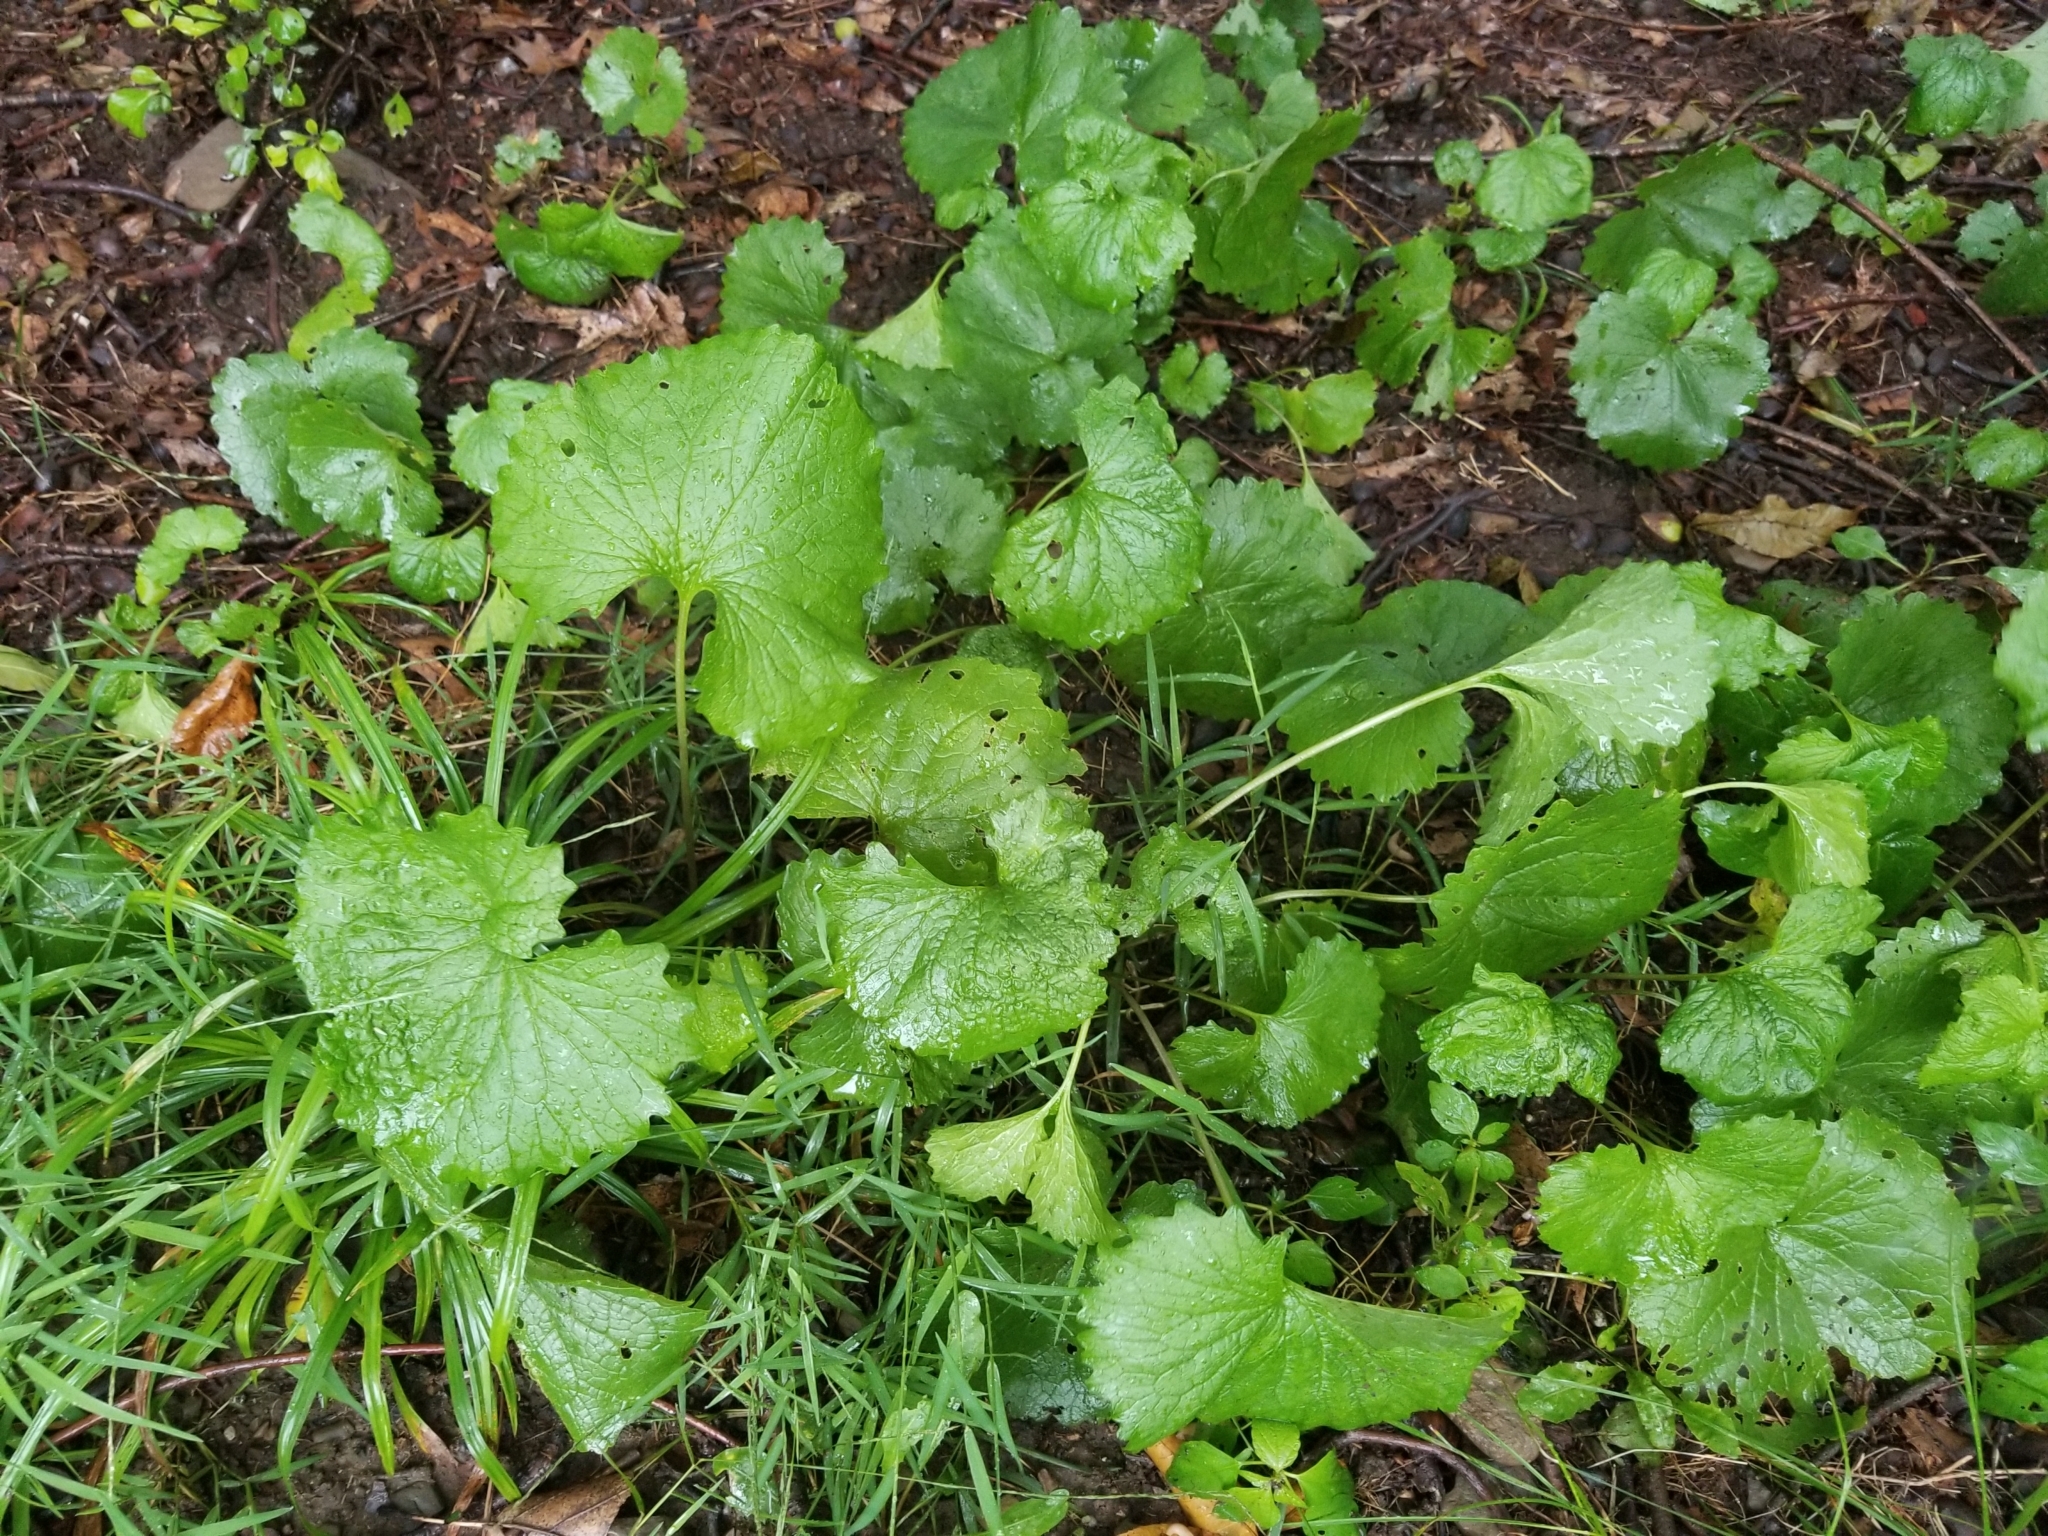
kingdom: Plantae
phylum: Tracheophyta
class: Magnoliopsida
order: Brassicales
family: Brassicaceae
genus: Alliaria
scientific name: Alliaria petiolata
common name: Garlic mustard
